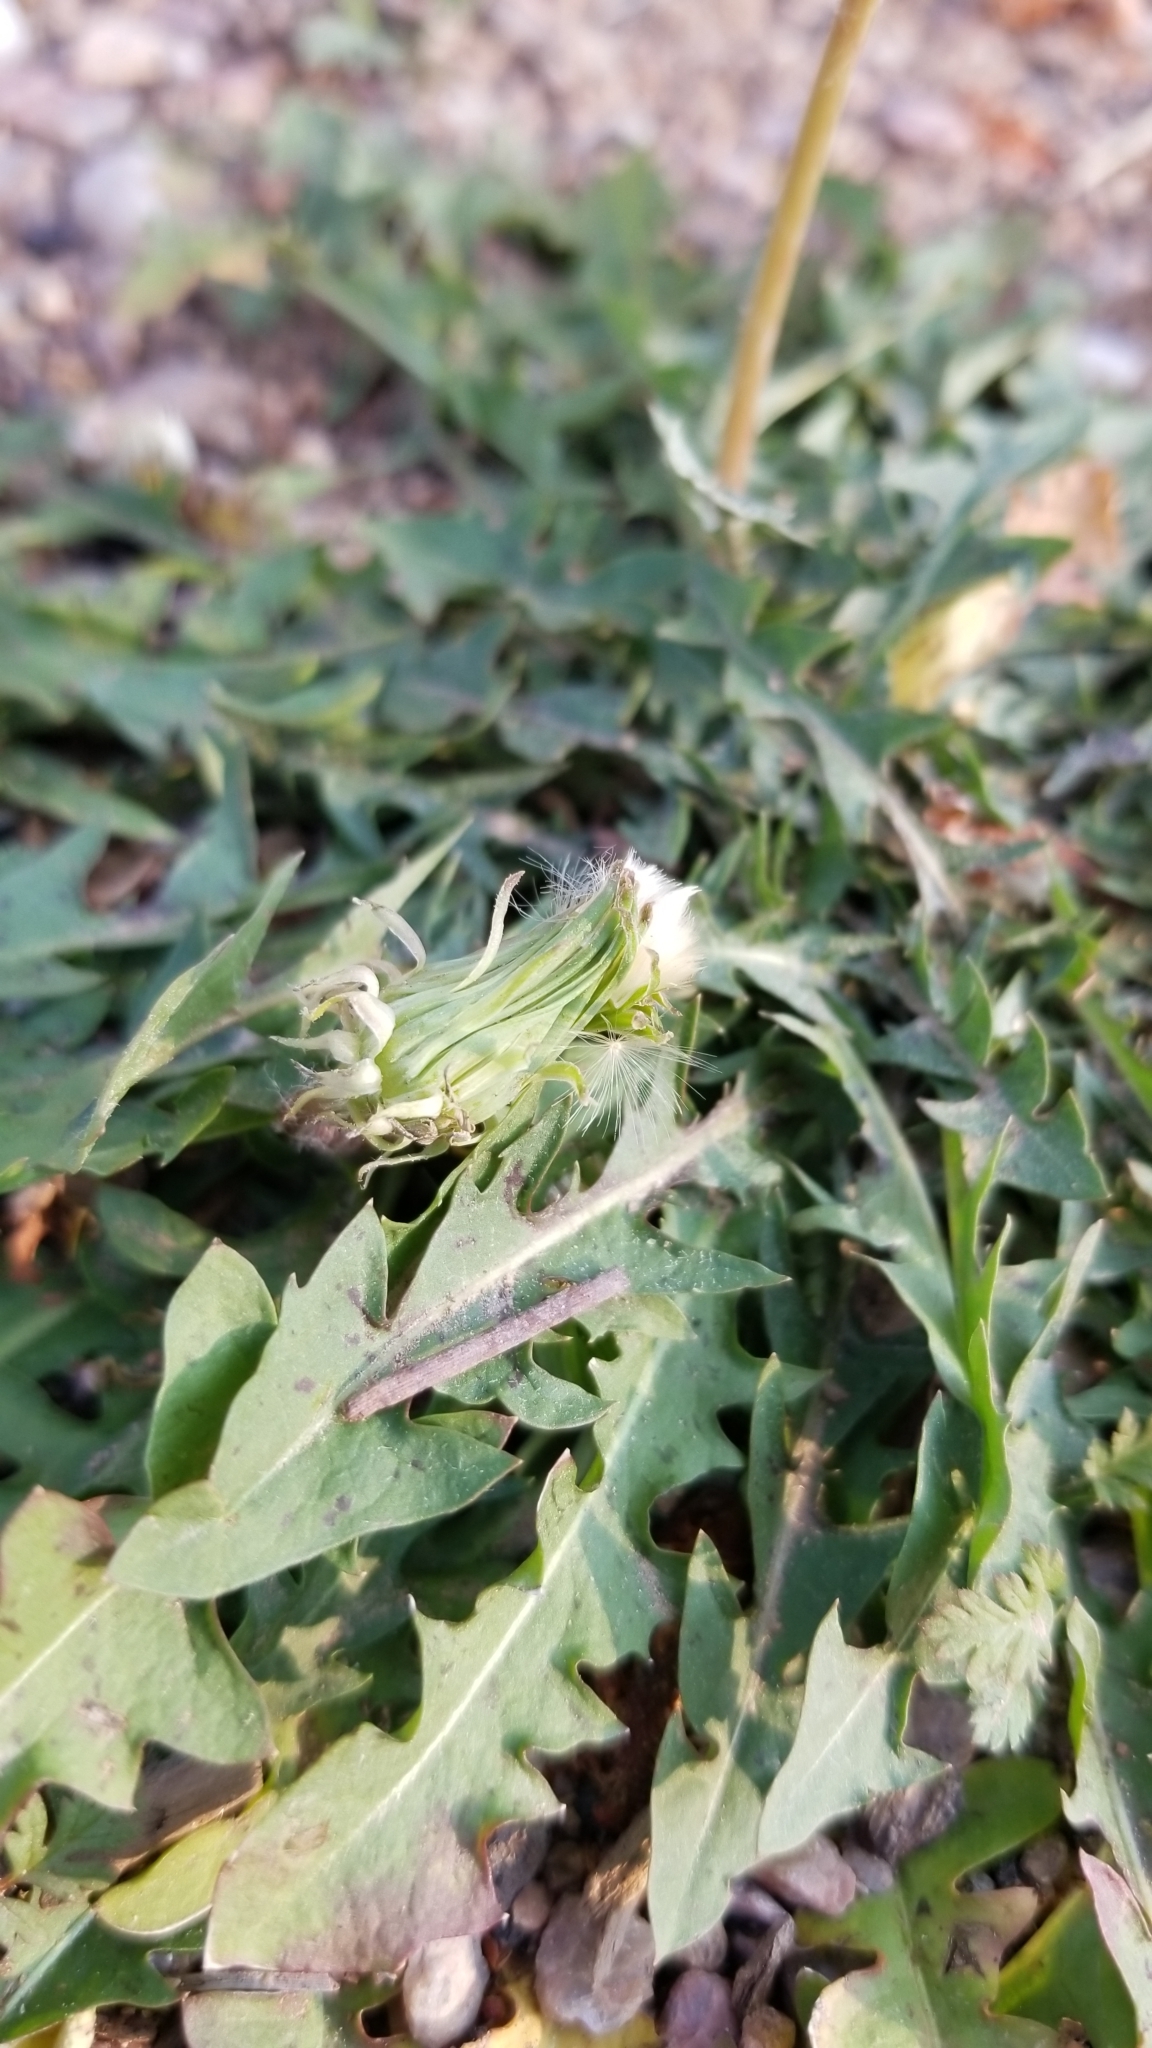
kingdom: Plantae
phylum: Tracheophyta
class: Magnoliopsida
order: Asterales
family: Asteraceae
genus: Taraxacum
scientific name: Taraxacum officinale
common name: Common dandelion
